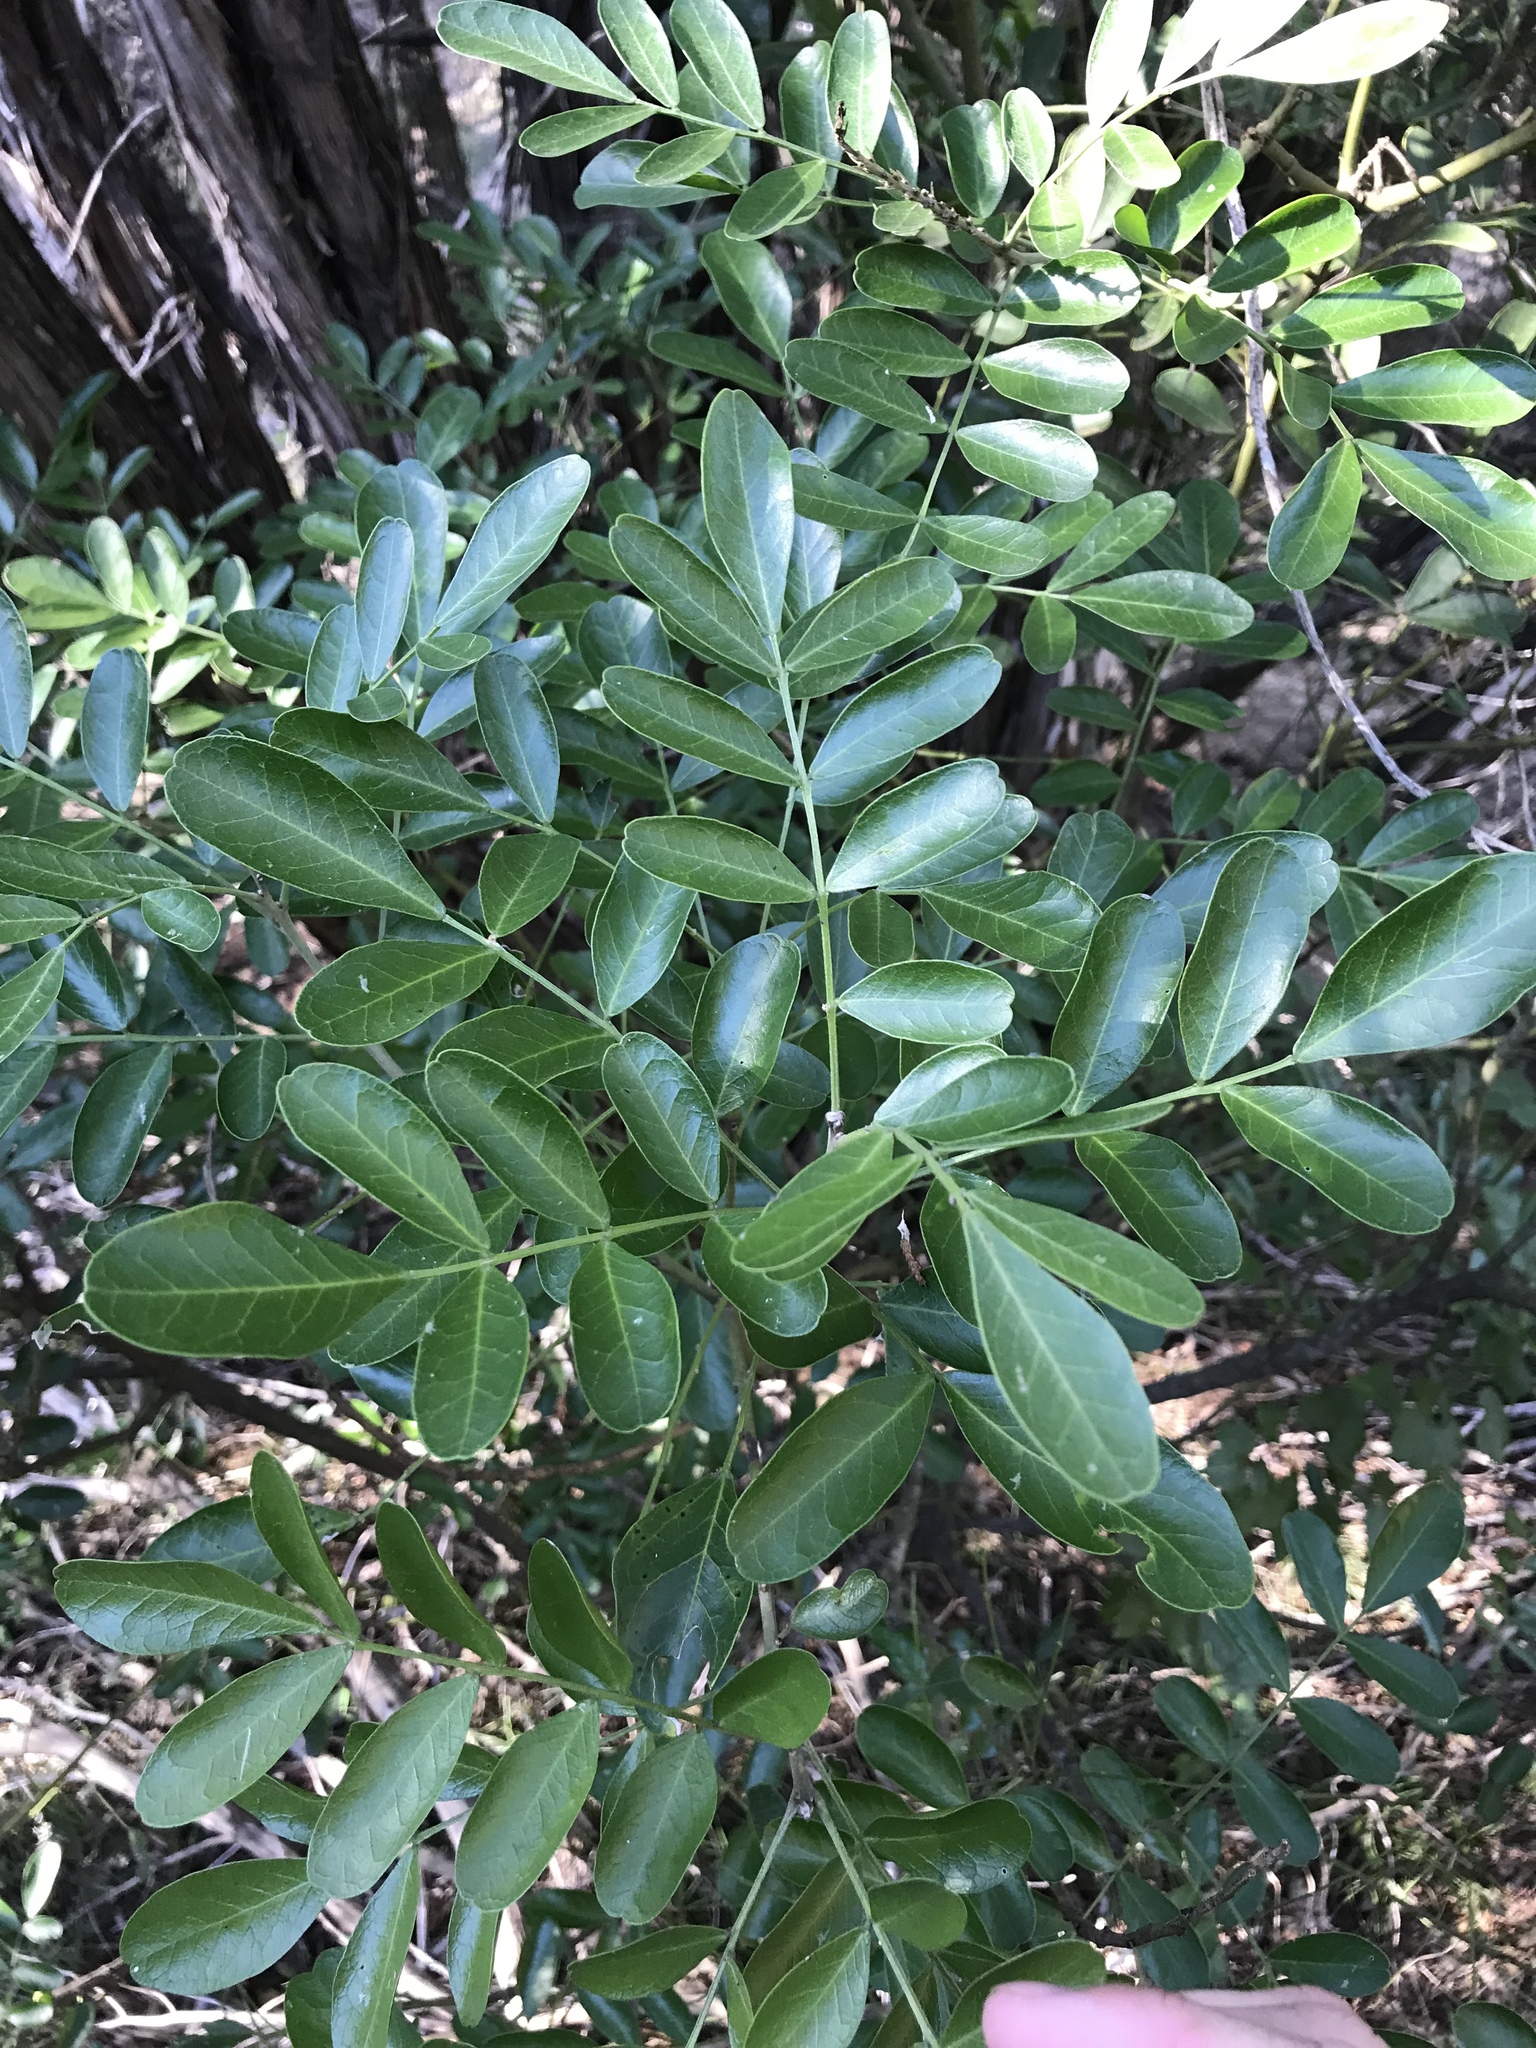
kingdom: Plantae
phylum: Tracheophyta
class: Magnoliopsida
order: Fabales
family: Fabaceae
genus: Dermatophyllum
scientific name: Dermatophyllum secundiflorum
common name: Texas-mountain-laurel
